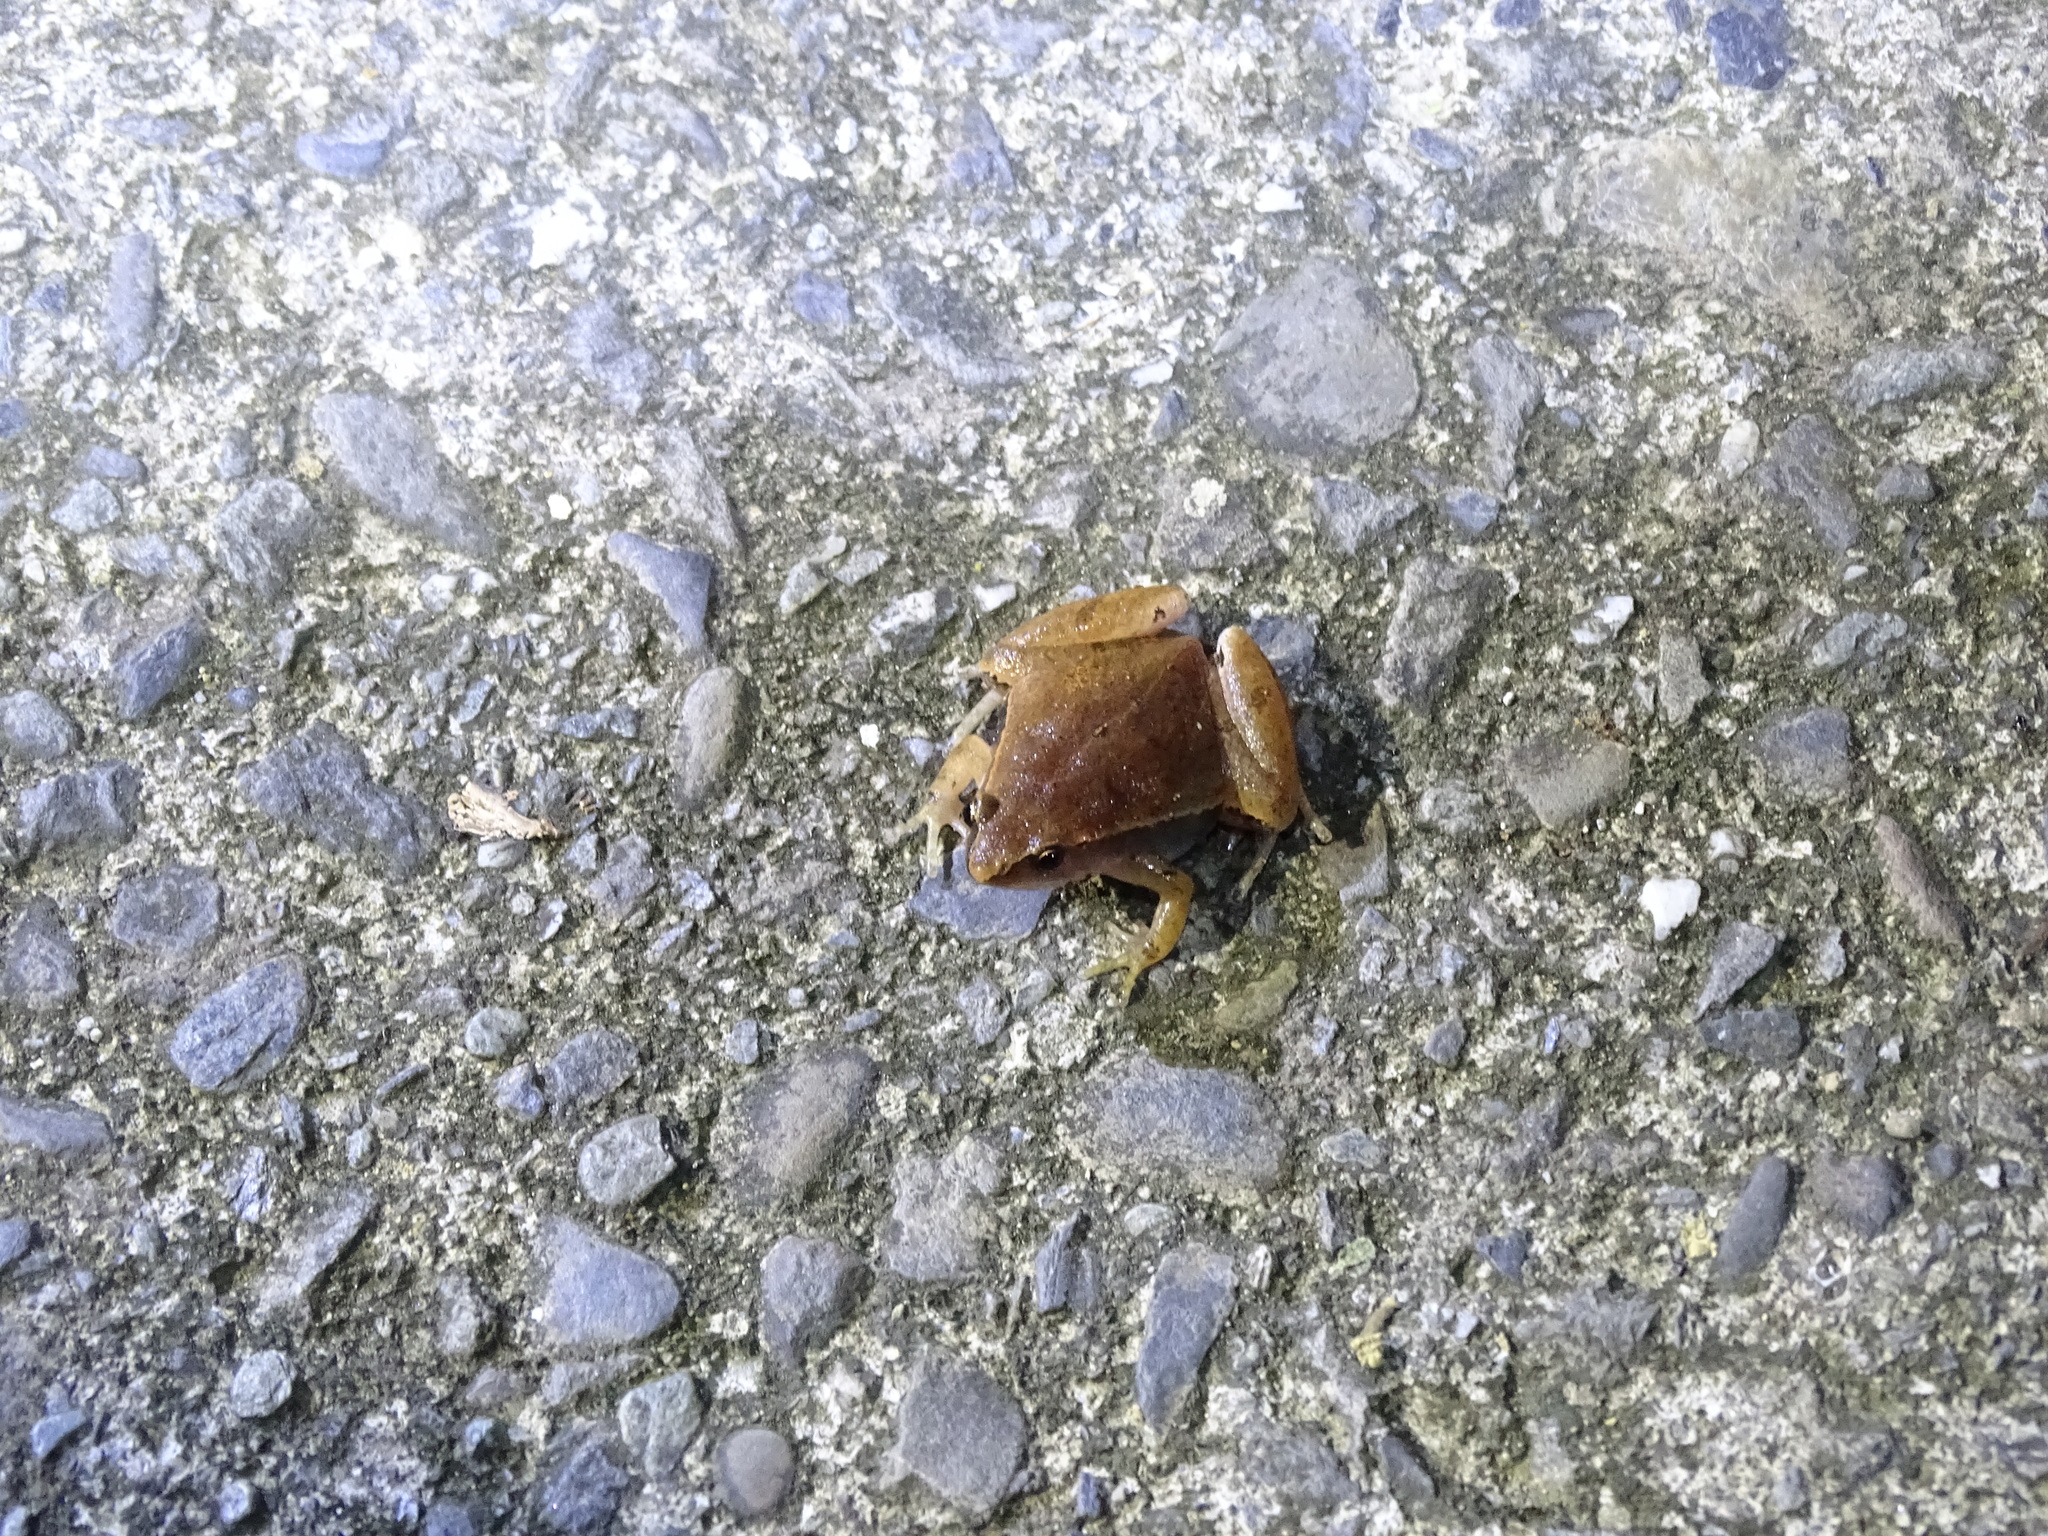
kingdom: Animalia
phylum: Chordata
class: Amphibia
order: Anura
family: Microhylidae
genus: Microhyla
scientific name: Microhyla heymonsi
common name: Taiwan rice frog,dark sided chorus frog
